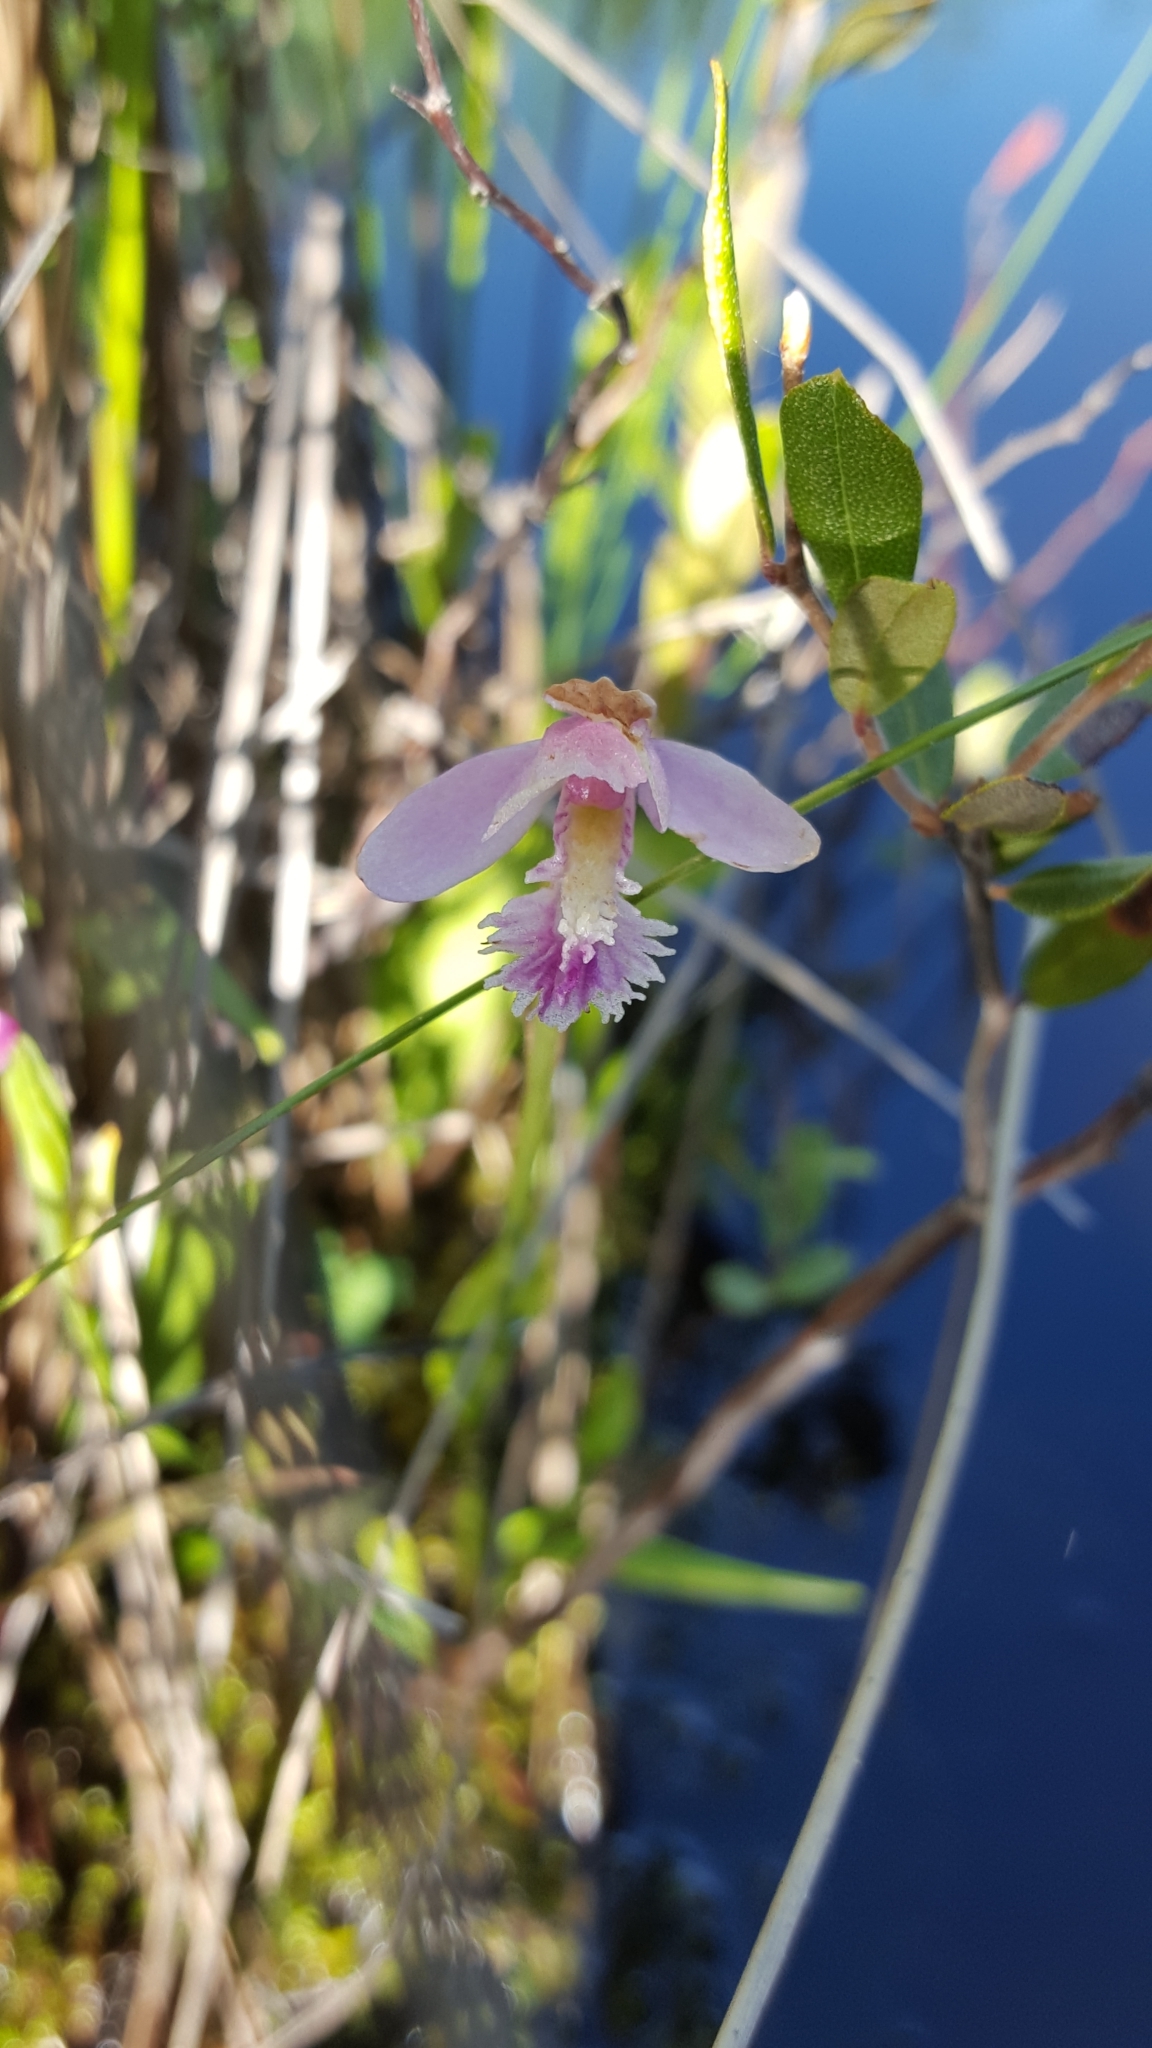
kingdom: Plantae
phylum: Tracheophyta
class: Liliopsida
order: Asparagales
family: Orchidaceae
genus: Pogonia
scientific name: Pogonia ophioglossoides
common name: Rose pogonia
